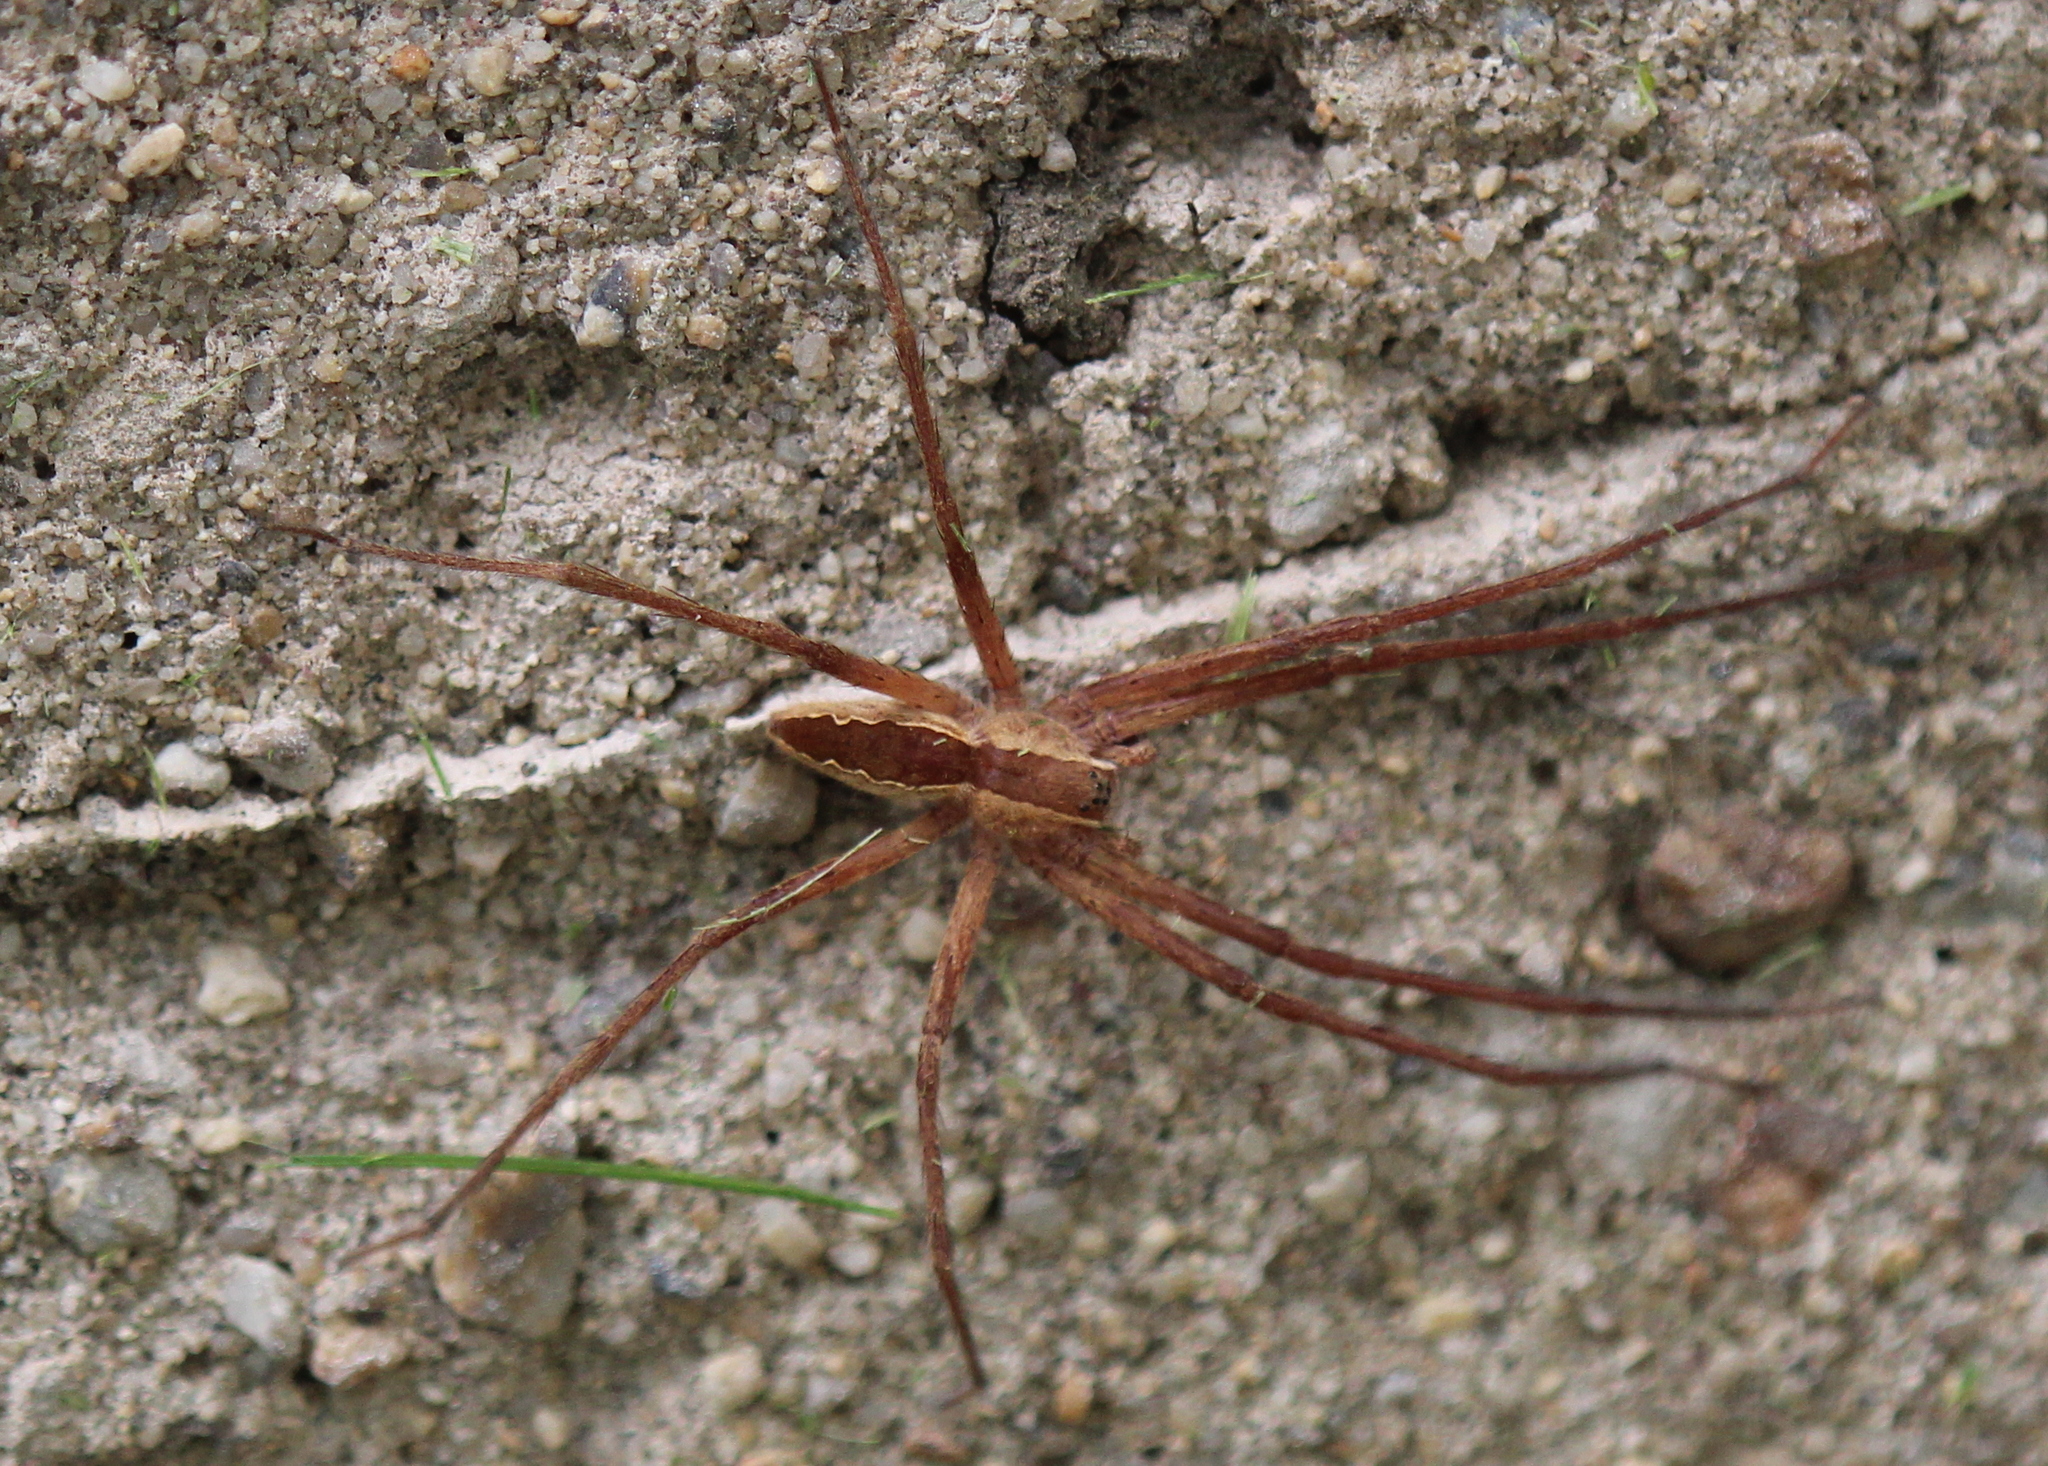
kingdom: Animalia
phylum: Arthropoda
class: Arachnida
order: Araneae
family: Pisauridae
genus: Pisaurina
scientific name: Pisaurina mira
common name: American nursery web spider
